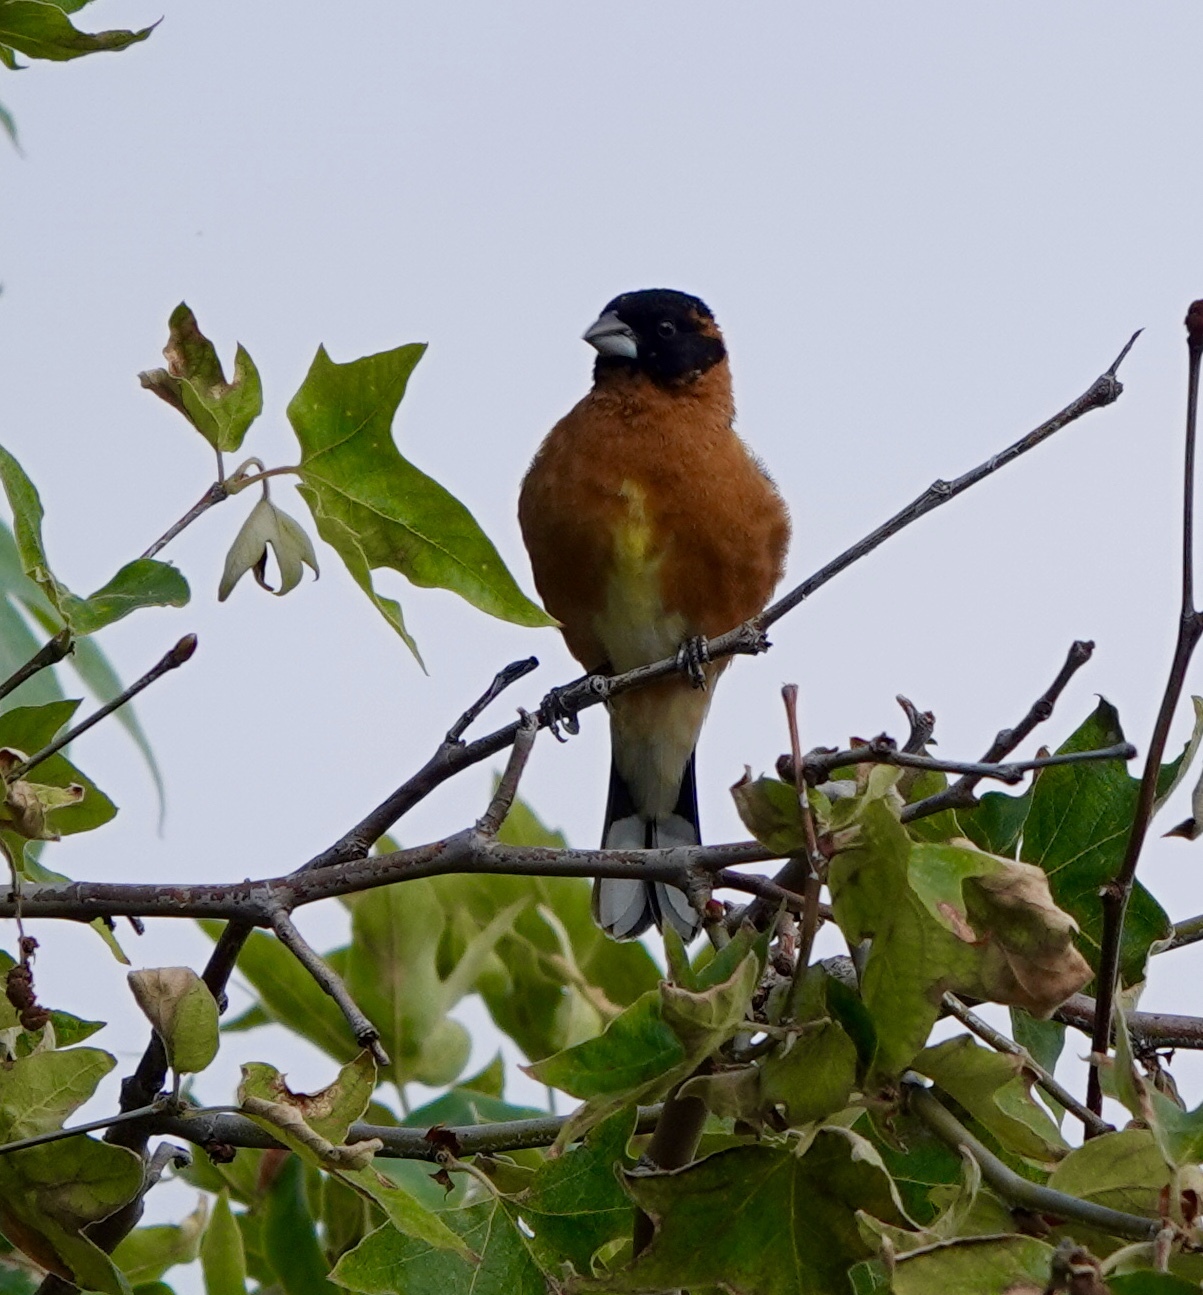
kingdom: Animalia
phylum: Chordata
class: Aves
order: Passeriformes
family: Cardinalidae
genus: Pheucticus
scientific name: Pheucticus melanocephalus
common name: Black-headed grosbeak
